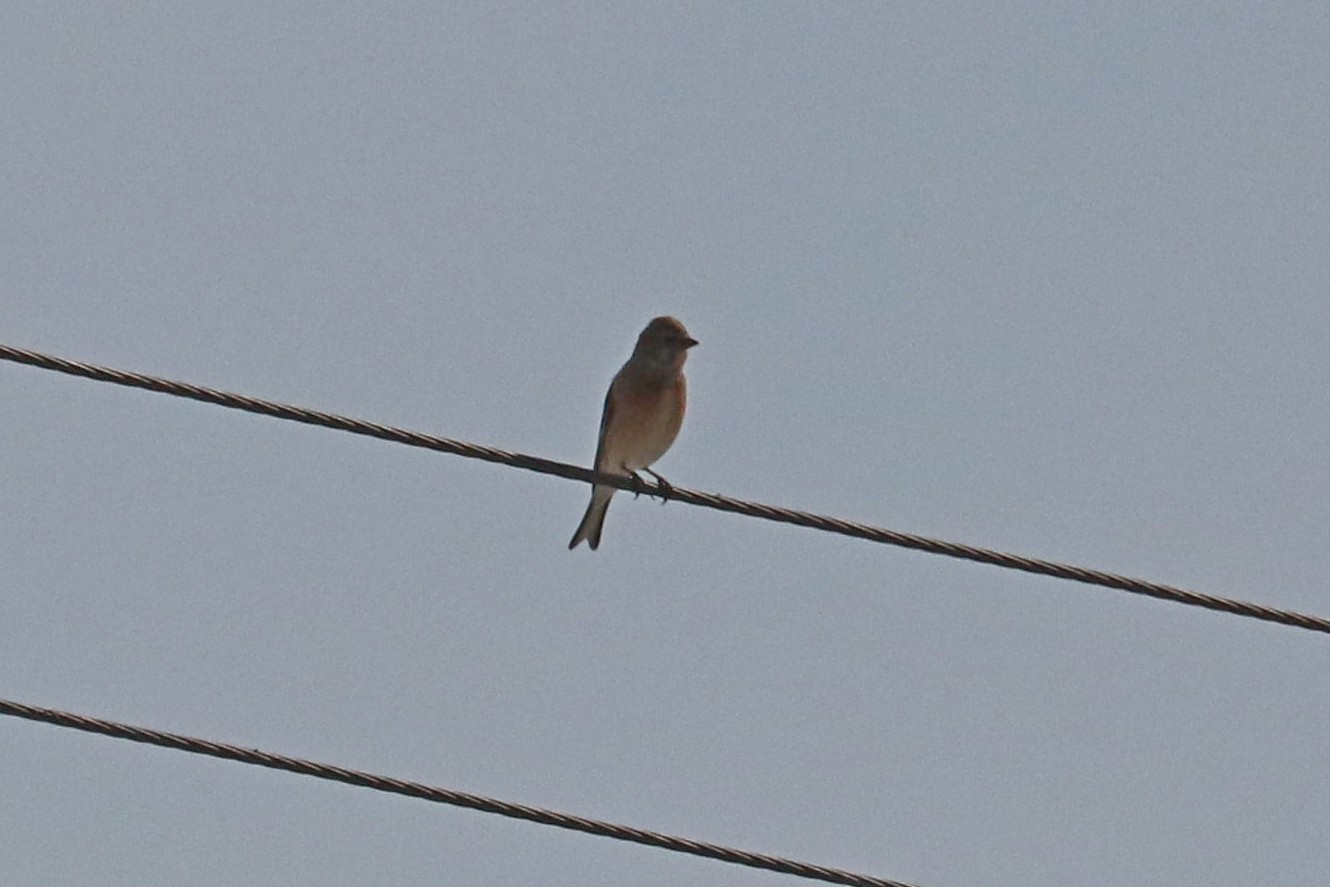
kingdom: Animalia
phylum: Chordata
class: Aves
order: Passeriformes
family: Fringillidae
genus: Linaria
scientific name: Linaria cannabina
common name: Common linnet
